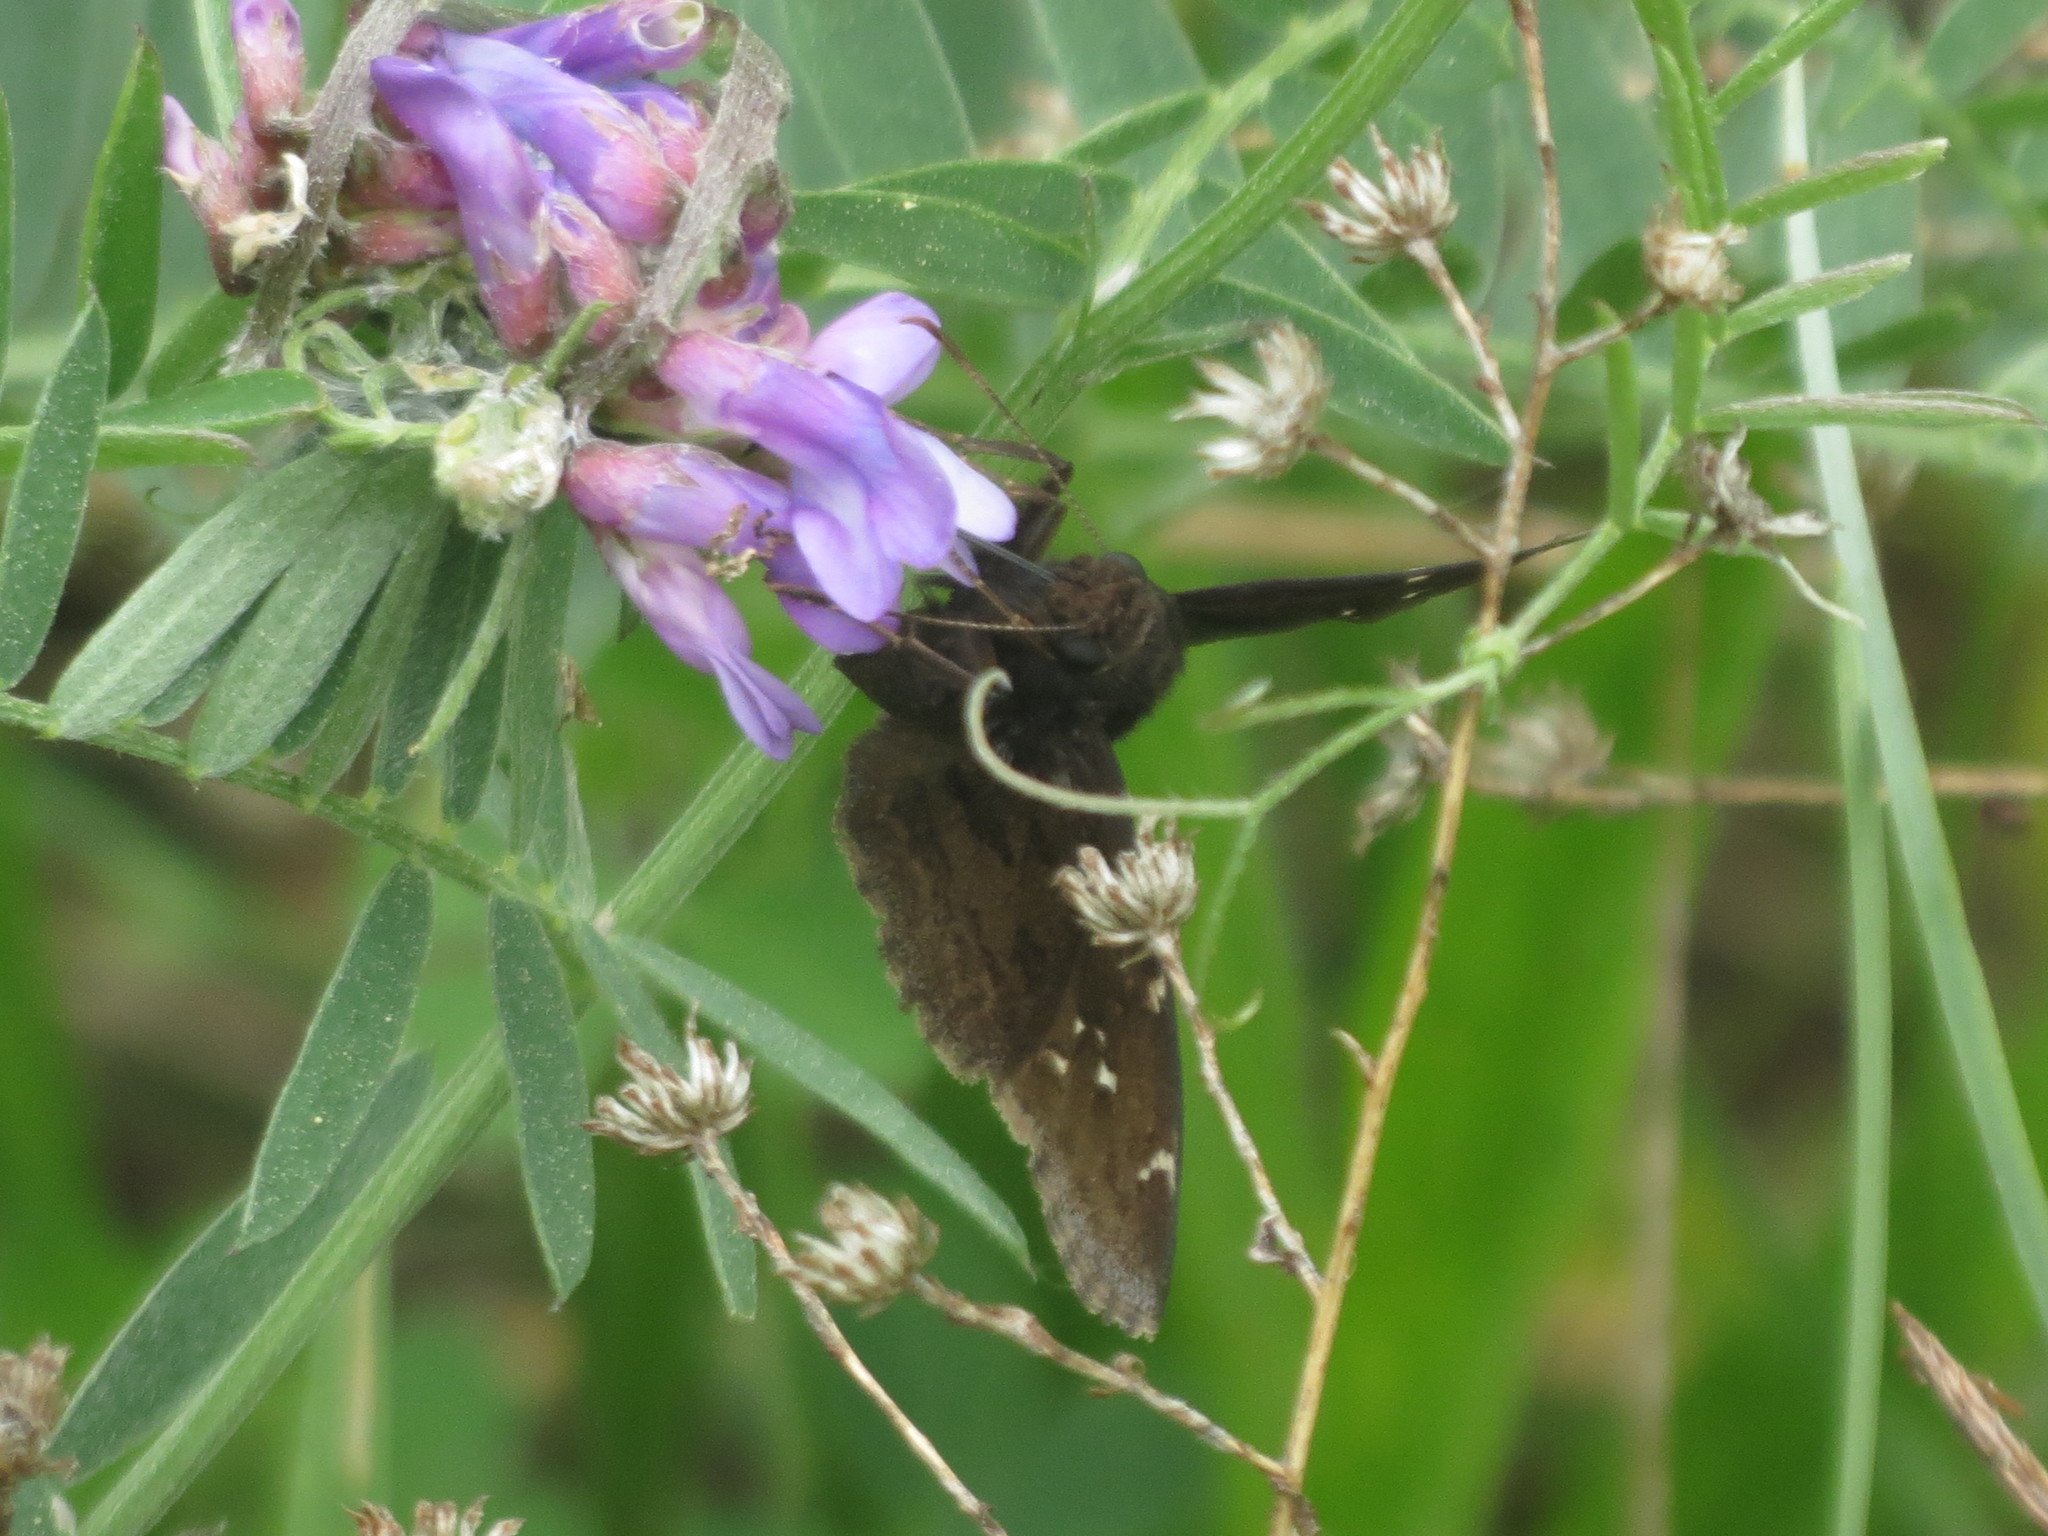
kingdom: Animalia
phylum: Arthropoda
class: Insecta
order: Lepidoptera
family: Hesperiidae
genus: Thorybes
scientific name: Thorybes pylades
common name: Northern cloudywing
